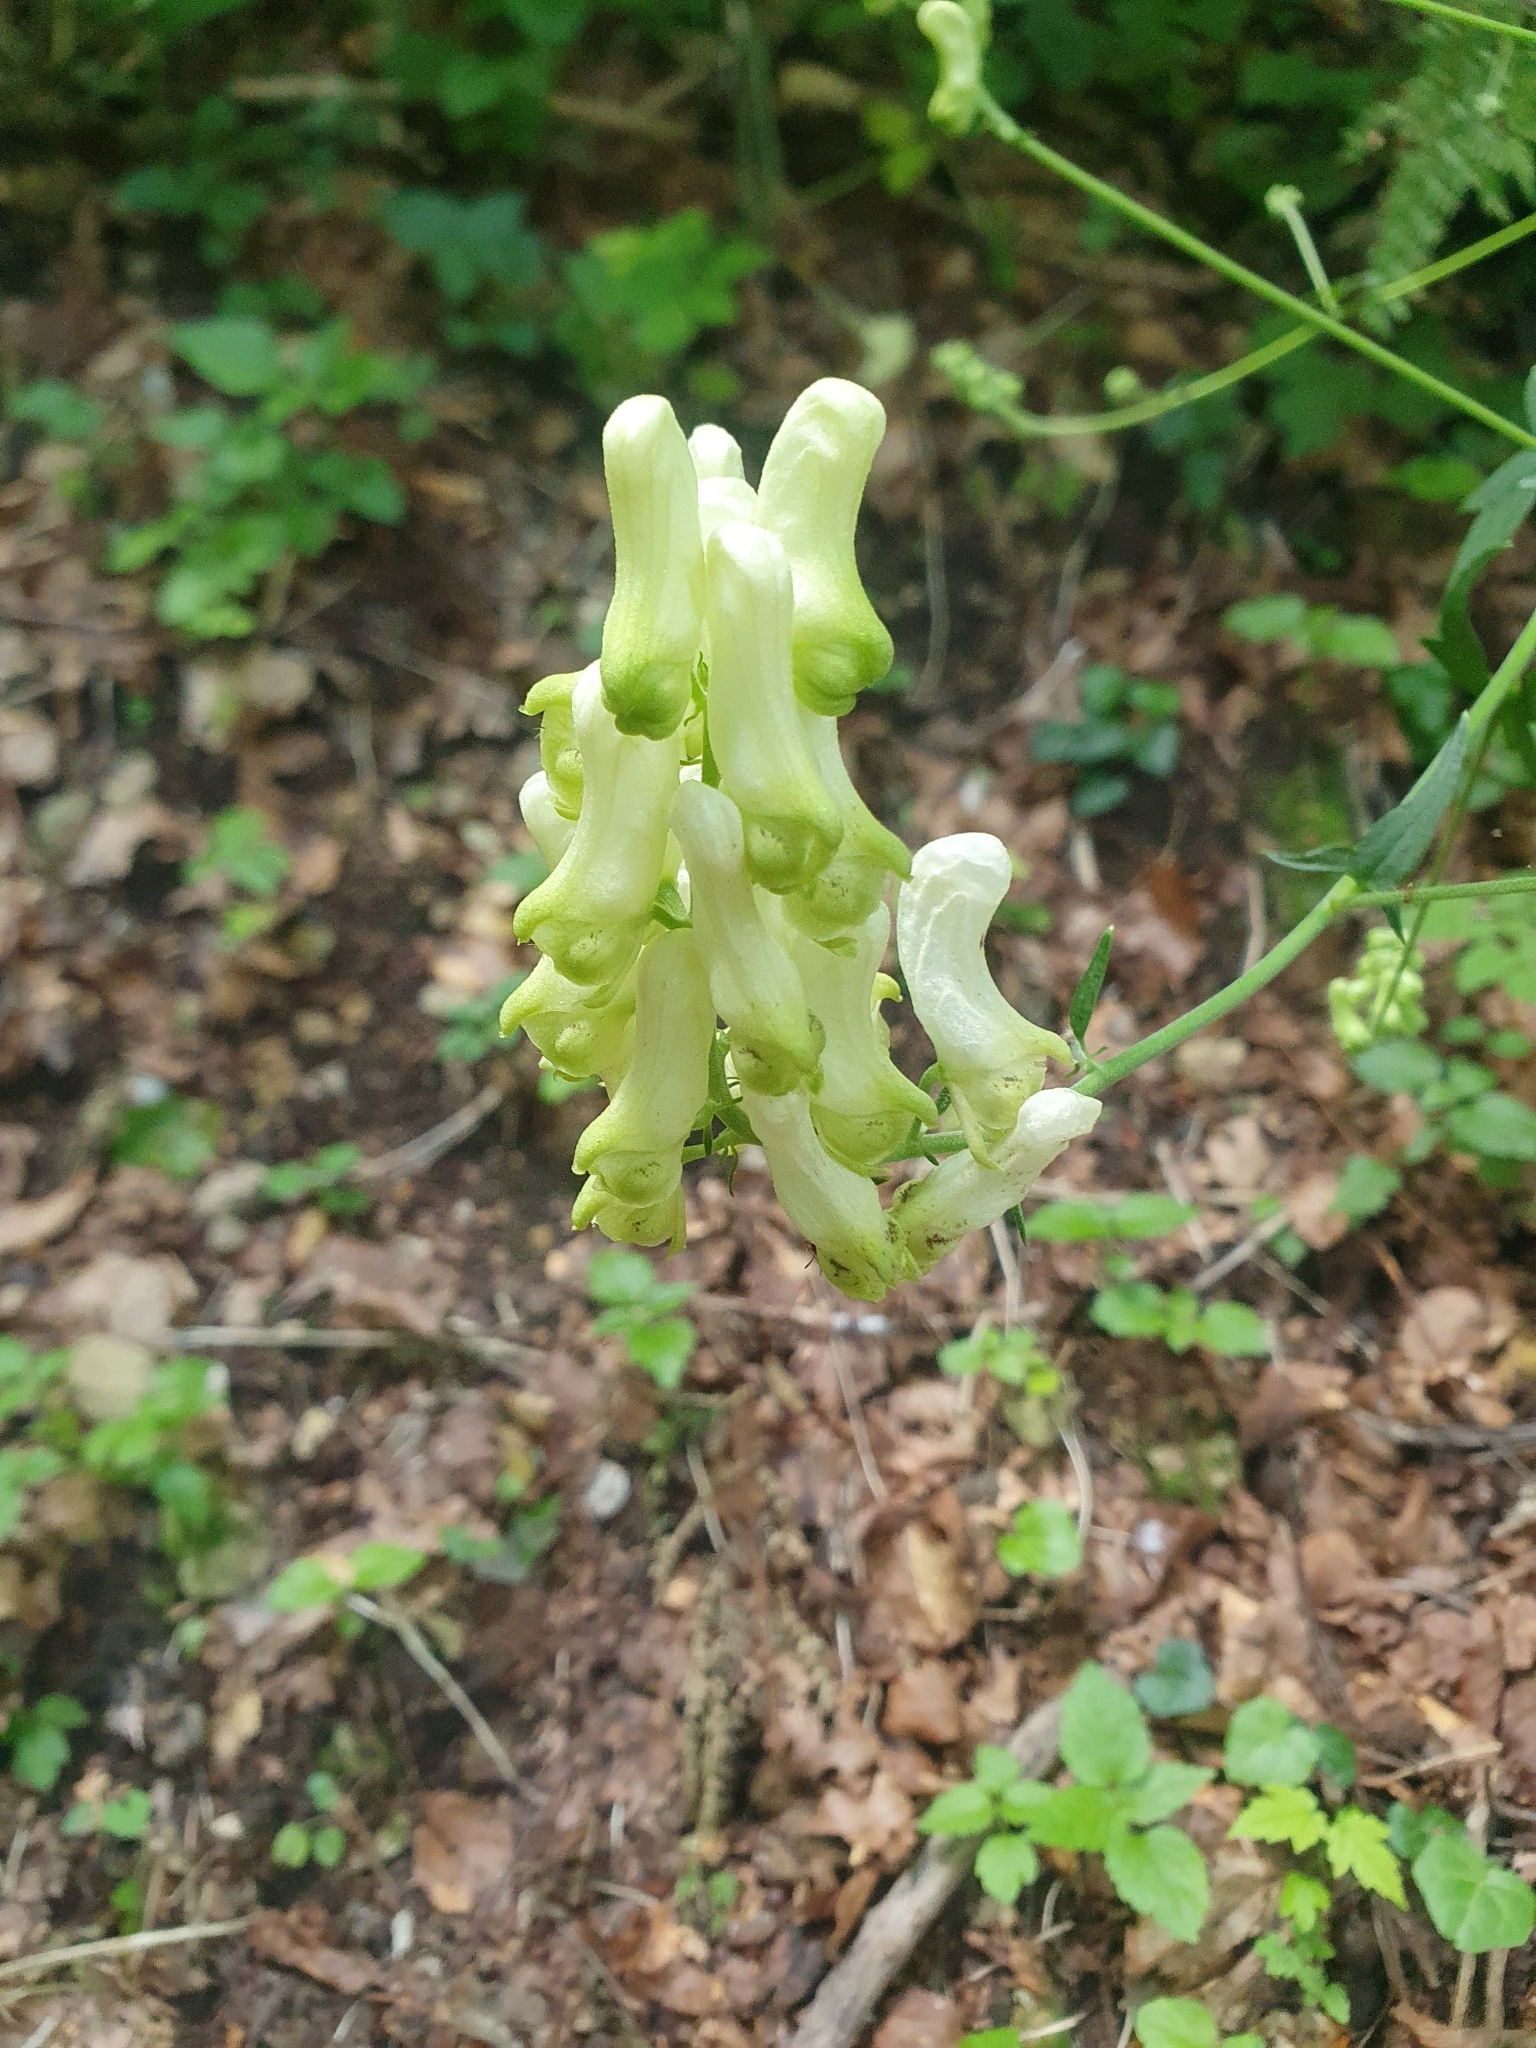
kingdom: Plantae
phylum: Tracheophyta
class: Magnoliopsida
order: Ranunculales
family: Ranunculaceae
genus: Aconitum
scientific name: Aconitum lycoctonum
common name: Wolf's-bane
